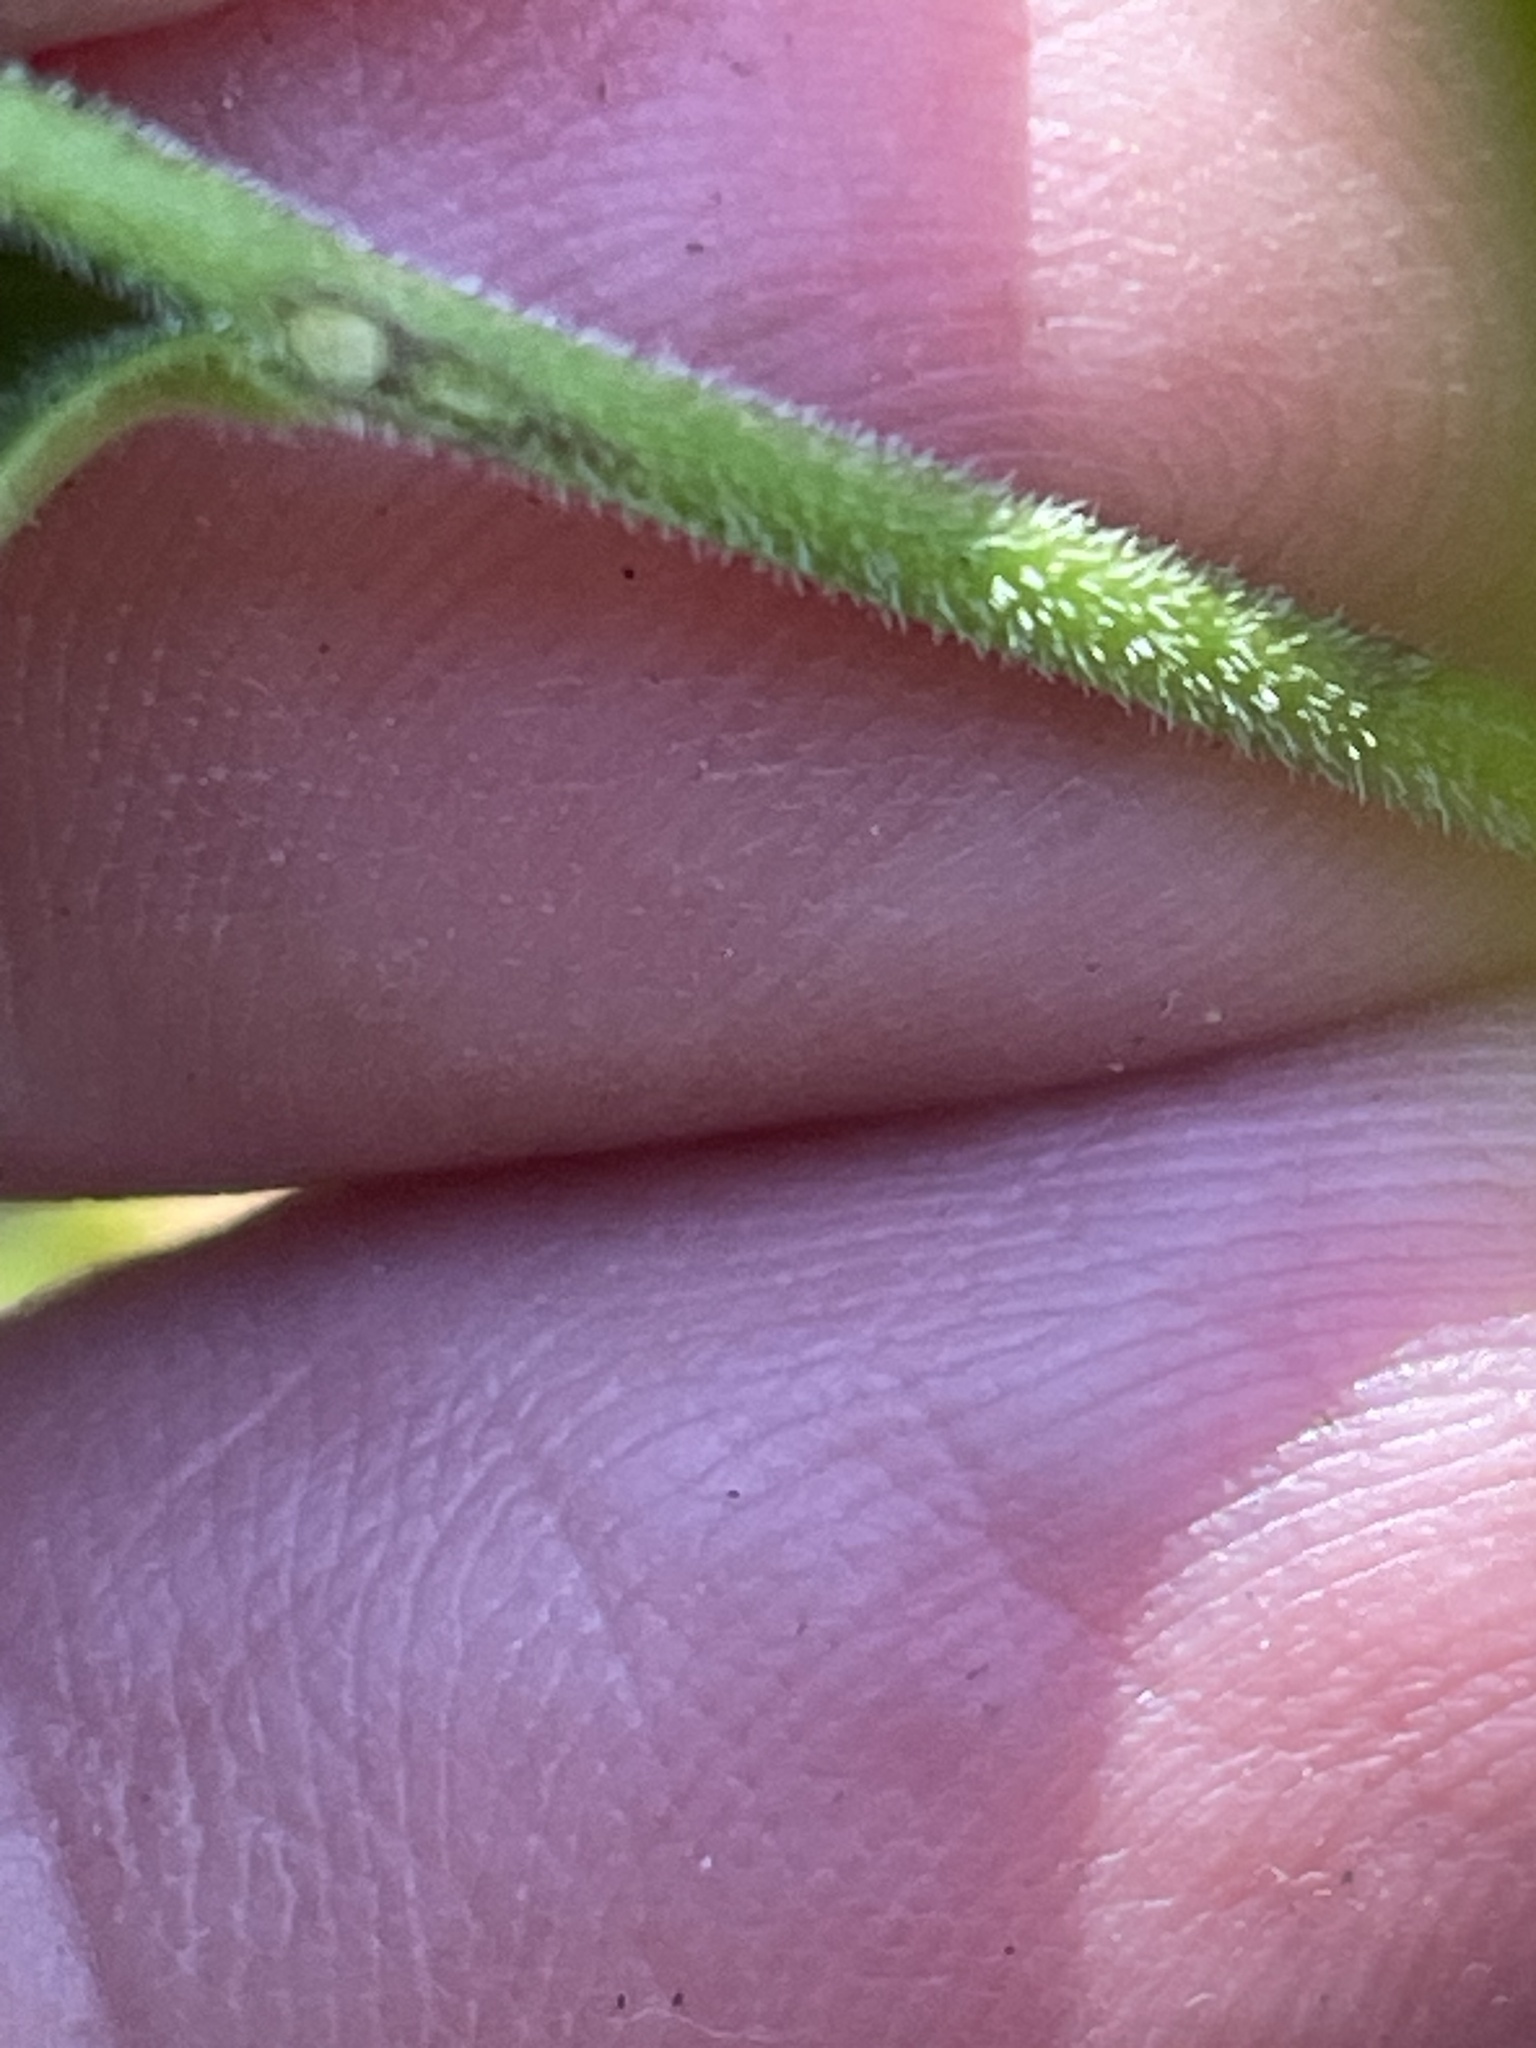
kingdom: Plantae
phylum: Tracheophyta
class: Magnoliopsida
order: Asterales
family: Campanulaceae
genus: Lobelia
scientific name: Lobelia puberula
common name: Purple dewdrop
